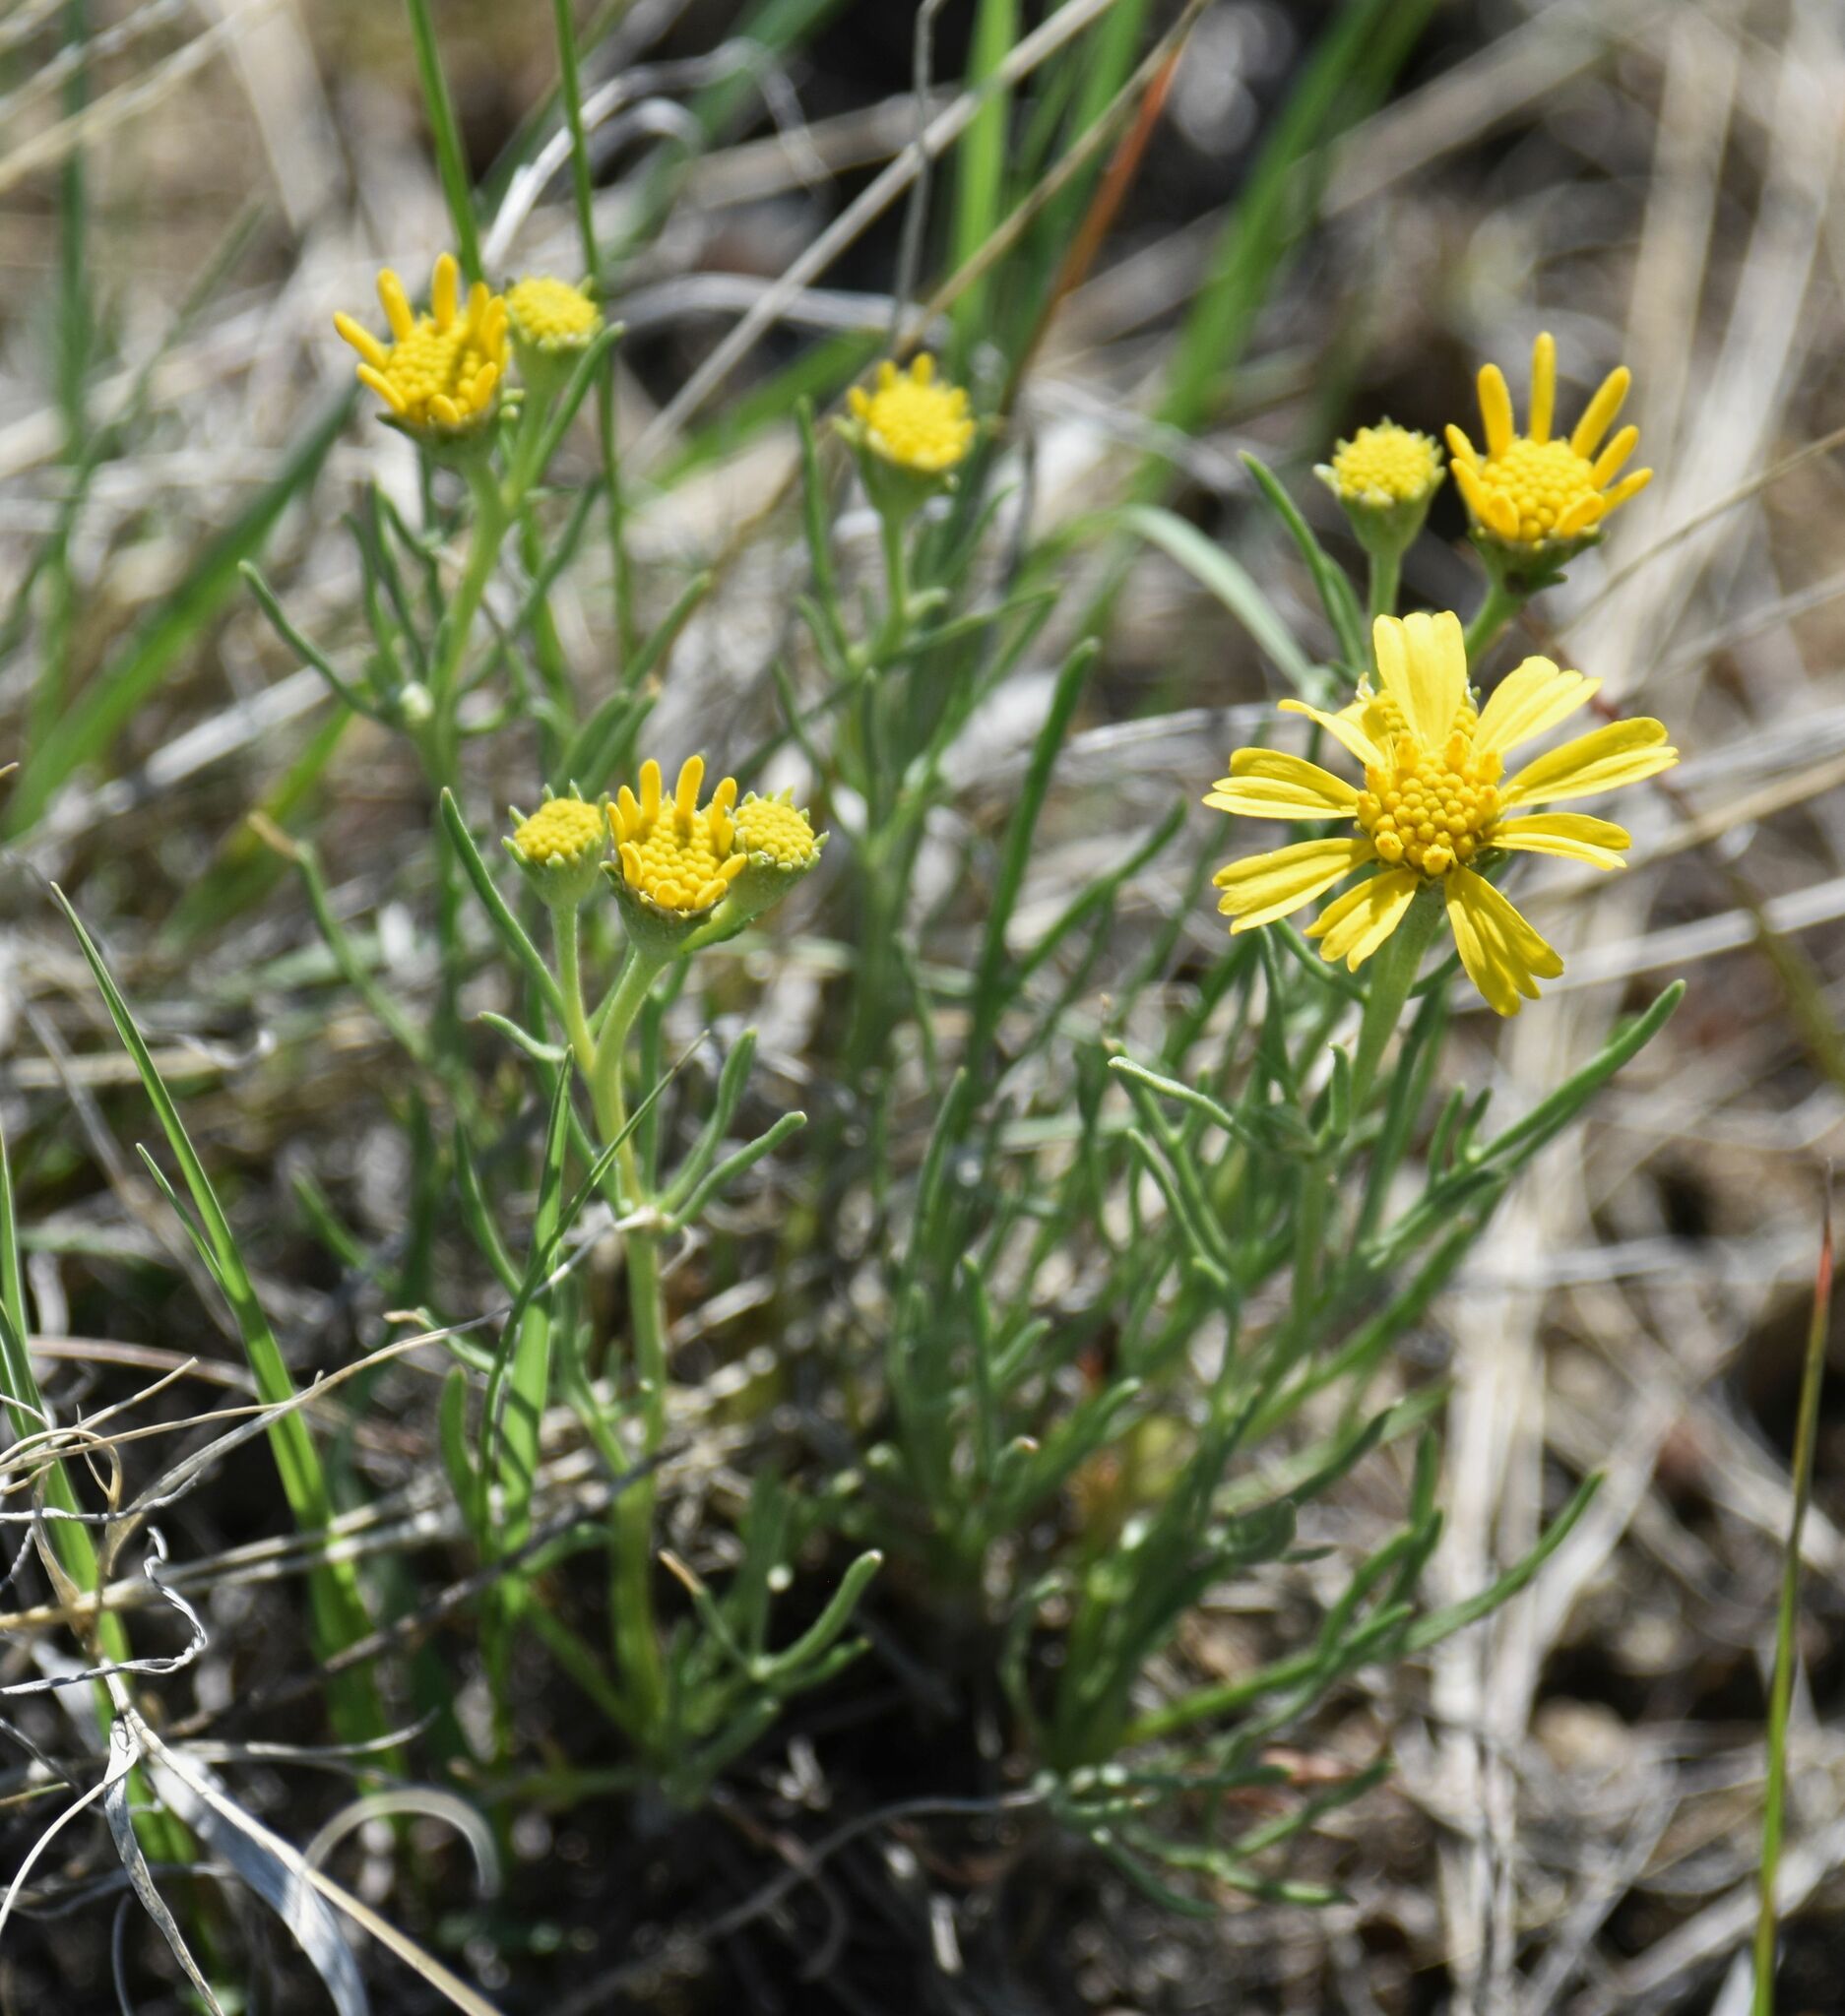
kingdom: Plantae
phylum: Tracheophyta
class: Magnoliopsida
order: Asterales
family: Asteraceae
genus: Hymenoxys
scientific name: Hymenoxys richardsonii
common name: Pingue rubberweed
